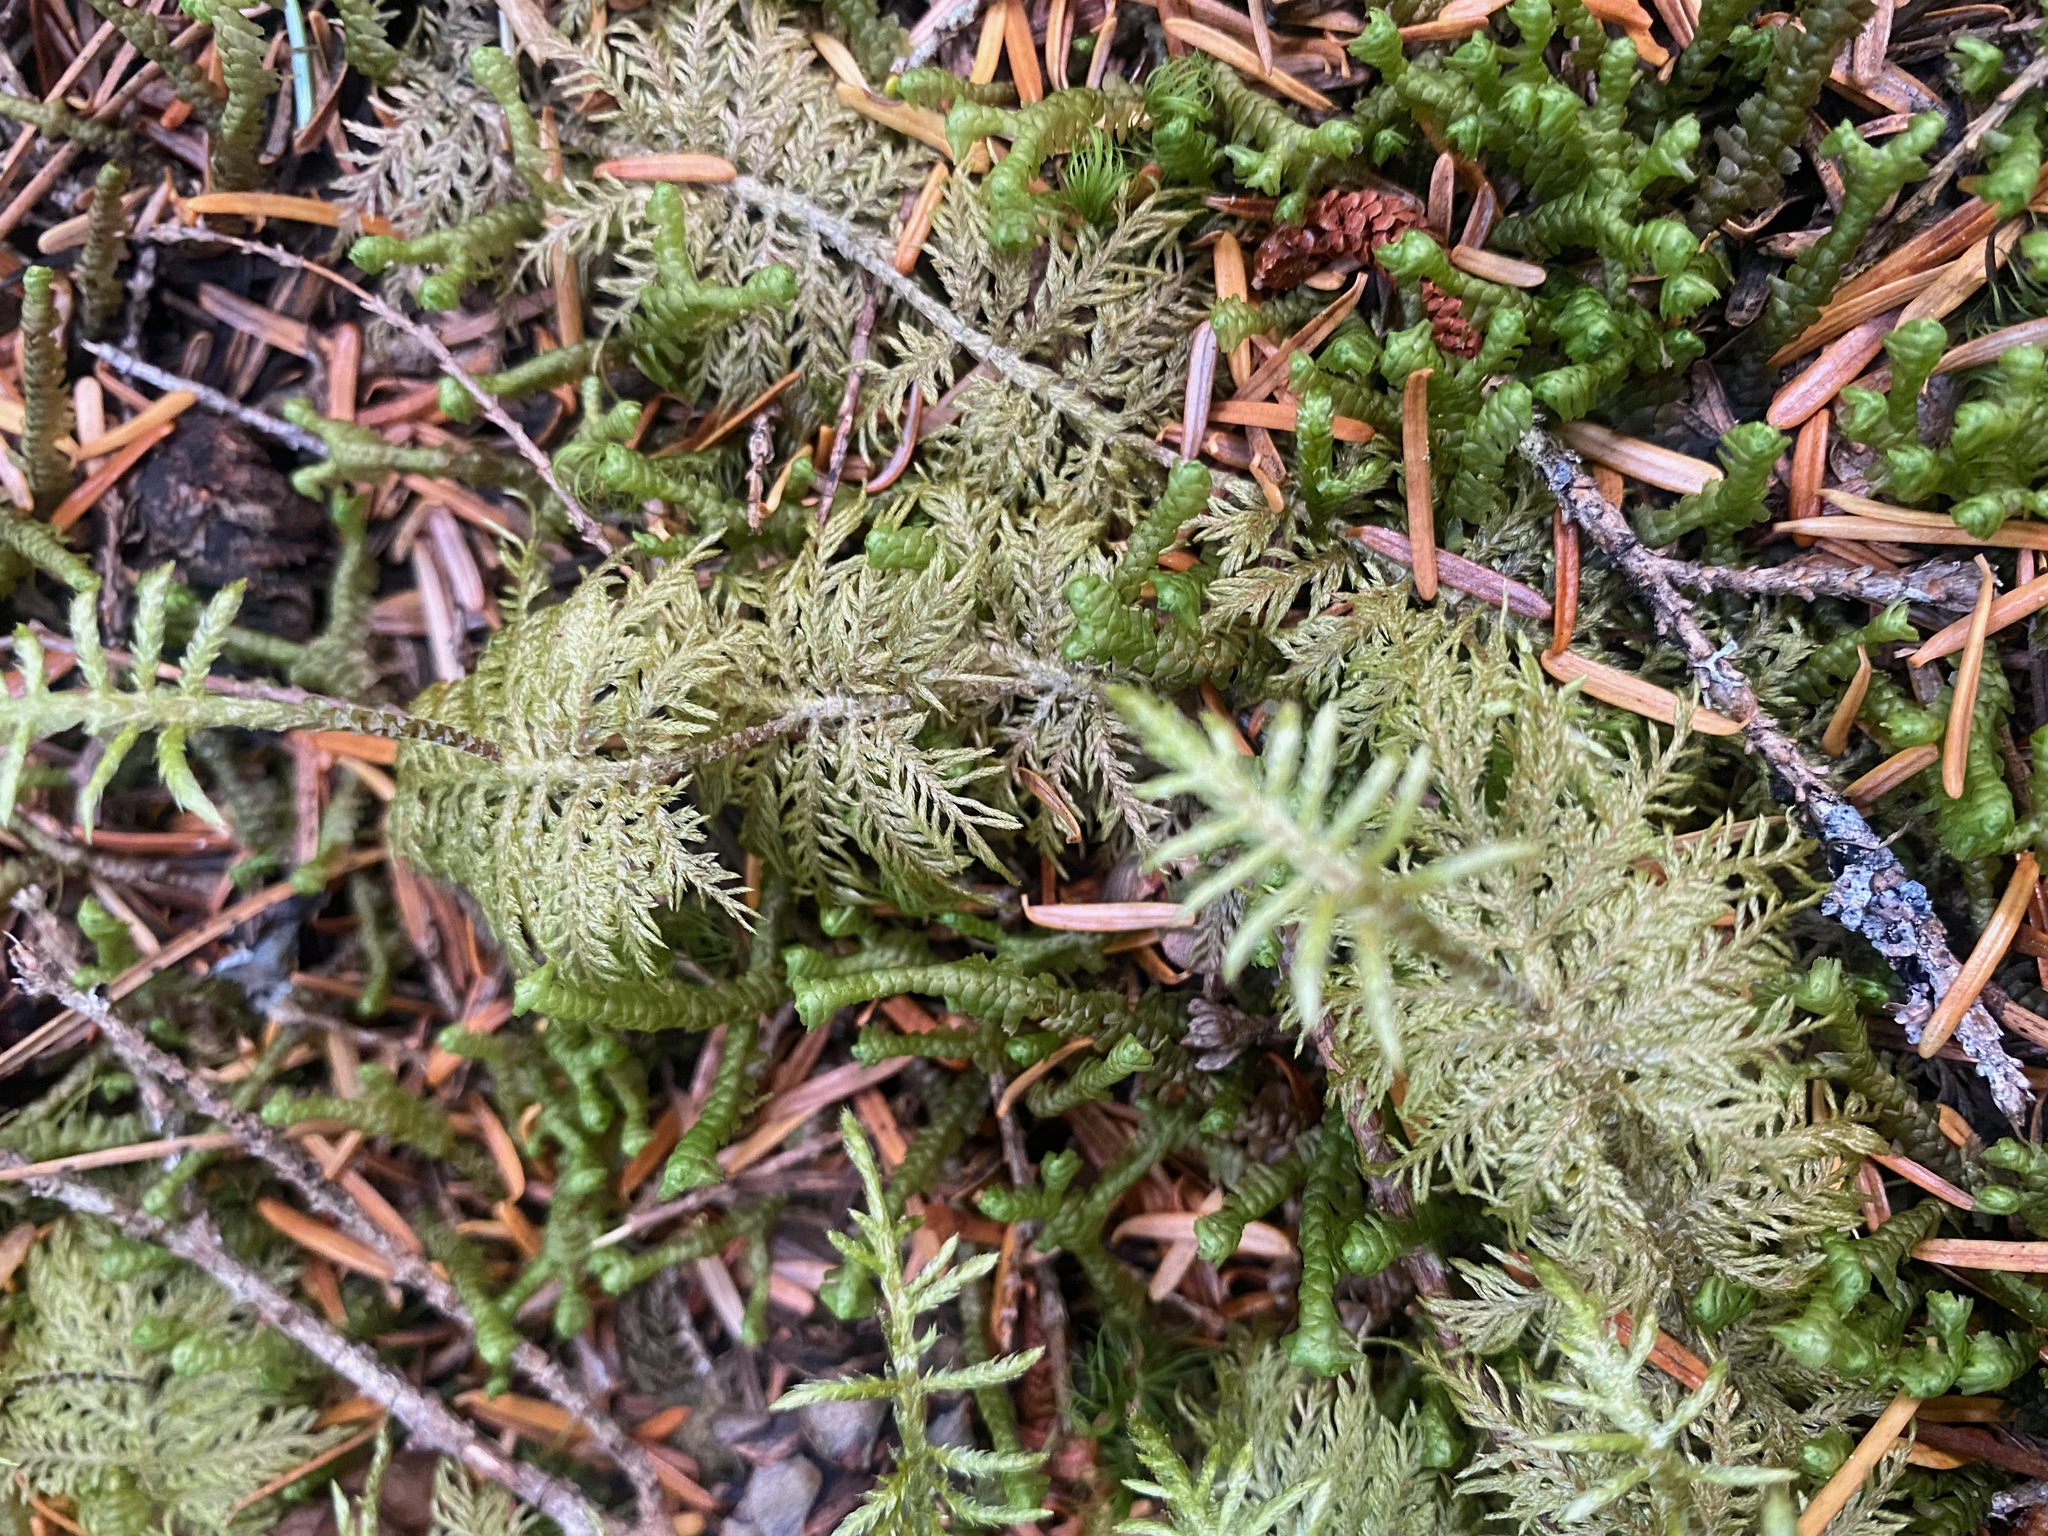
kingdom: Plantae
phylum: Bryophyta
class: Bryopsida
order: Hypnales
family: Hylocomiaceae
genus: Hylocomium
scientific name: Hylocomium splendens
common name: Stairstep moss
